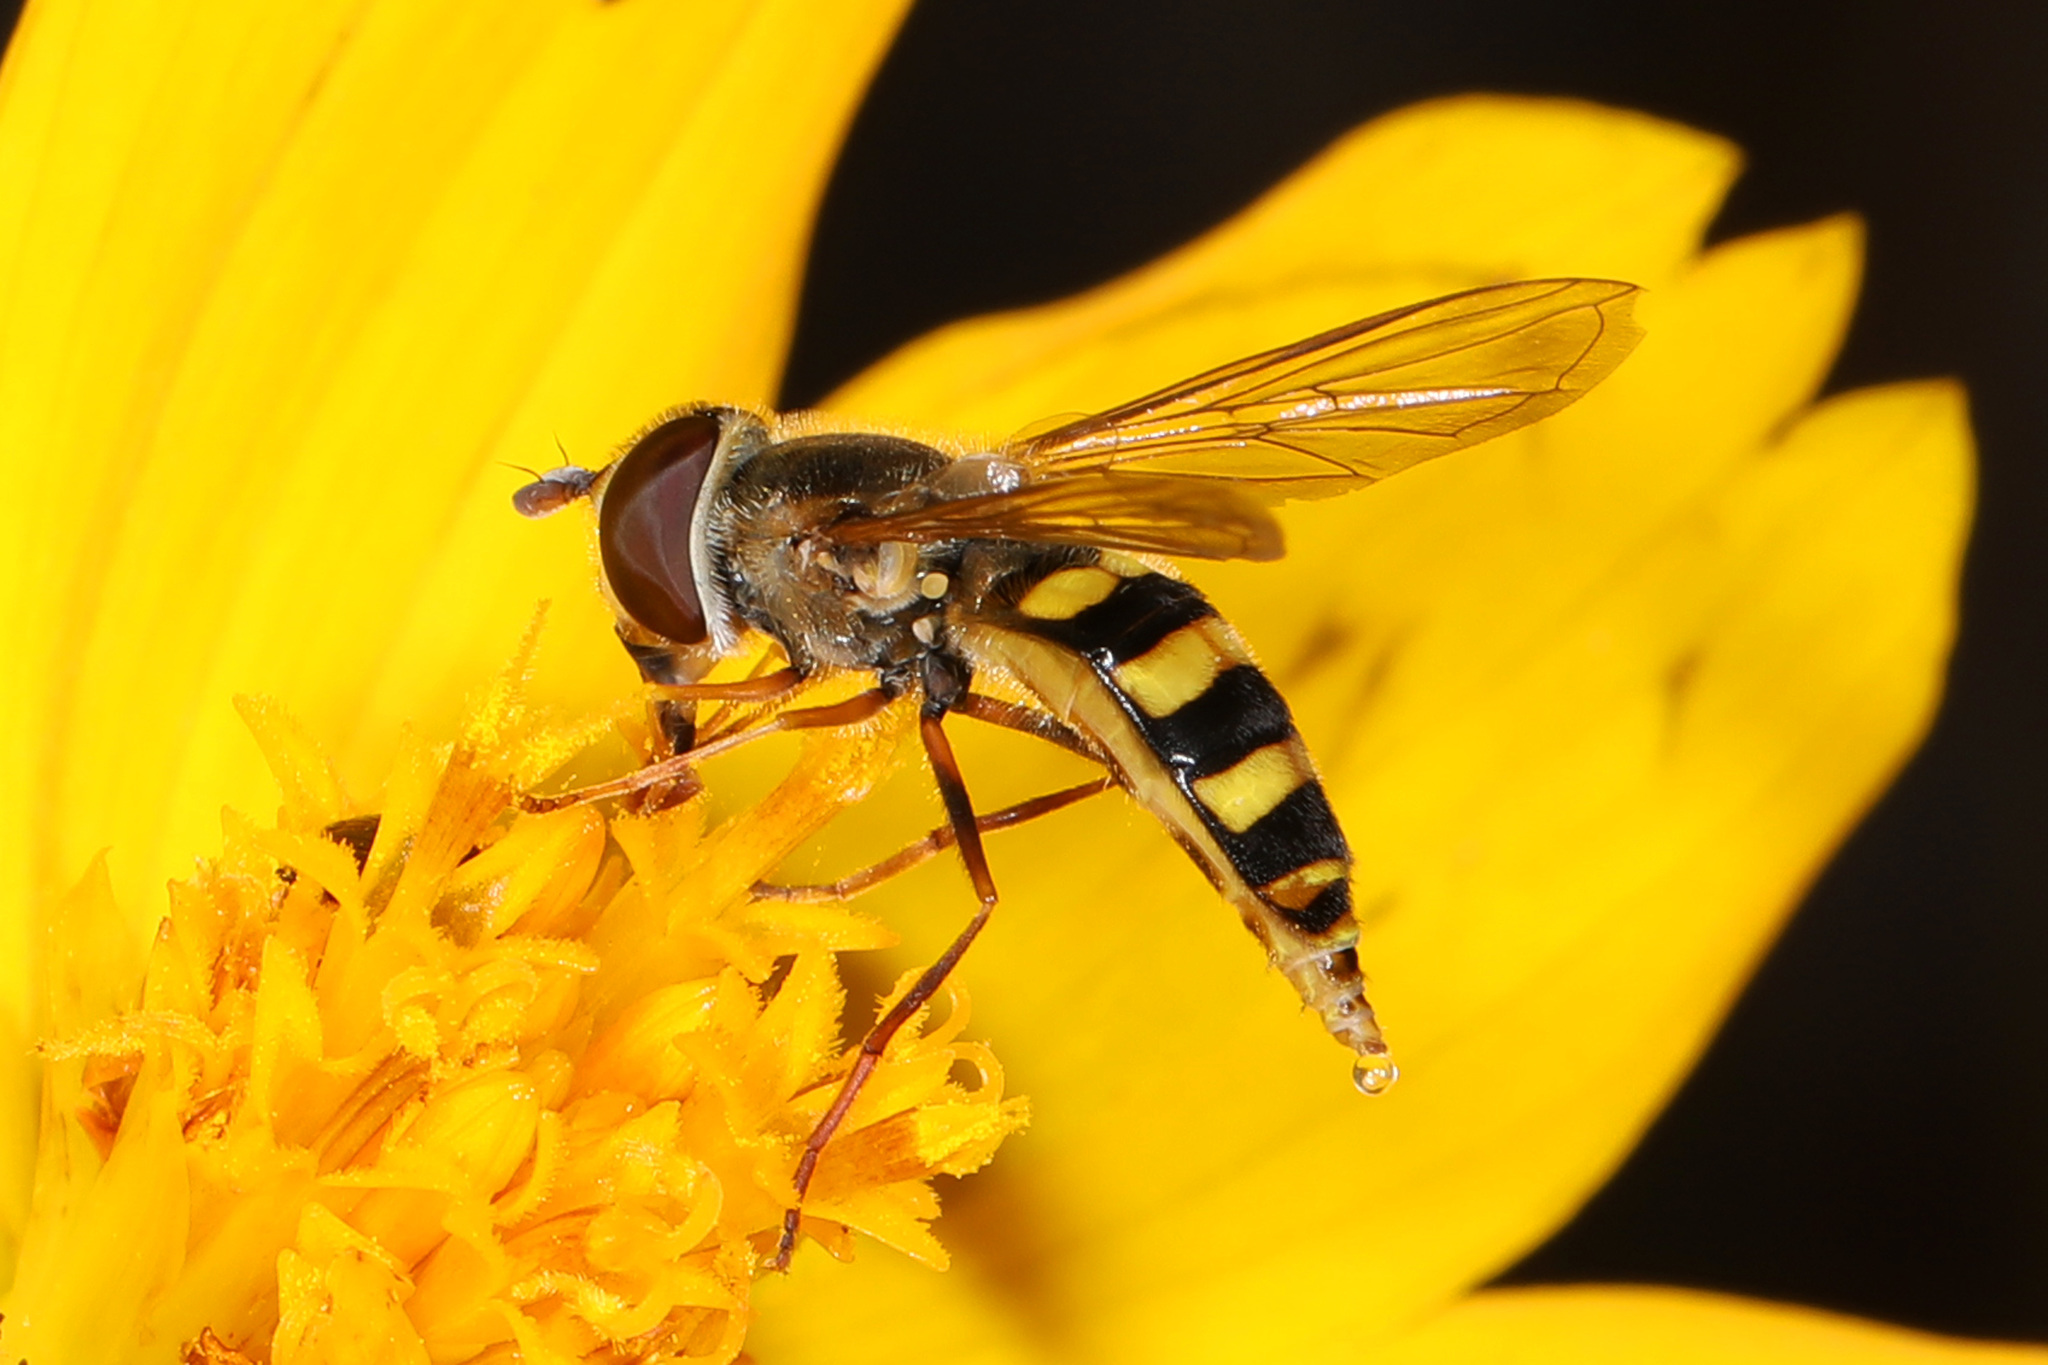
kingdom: Animalia
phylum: Arthropoda
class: Insecta
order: Diptera
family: Syrphidae
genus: Eupeodes
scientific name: Eupeodes
